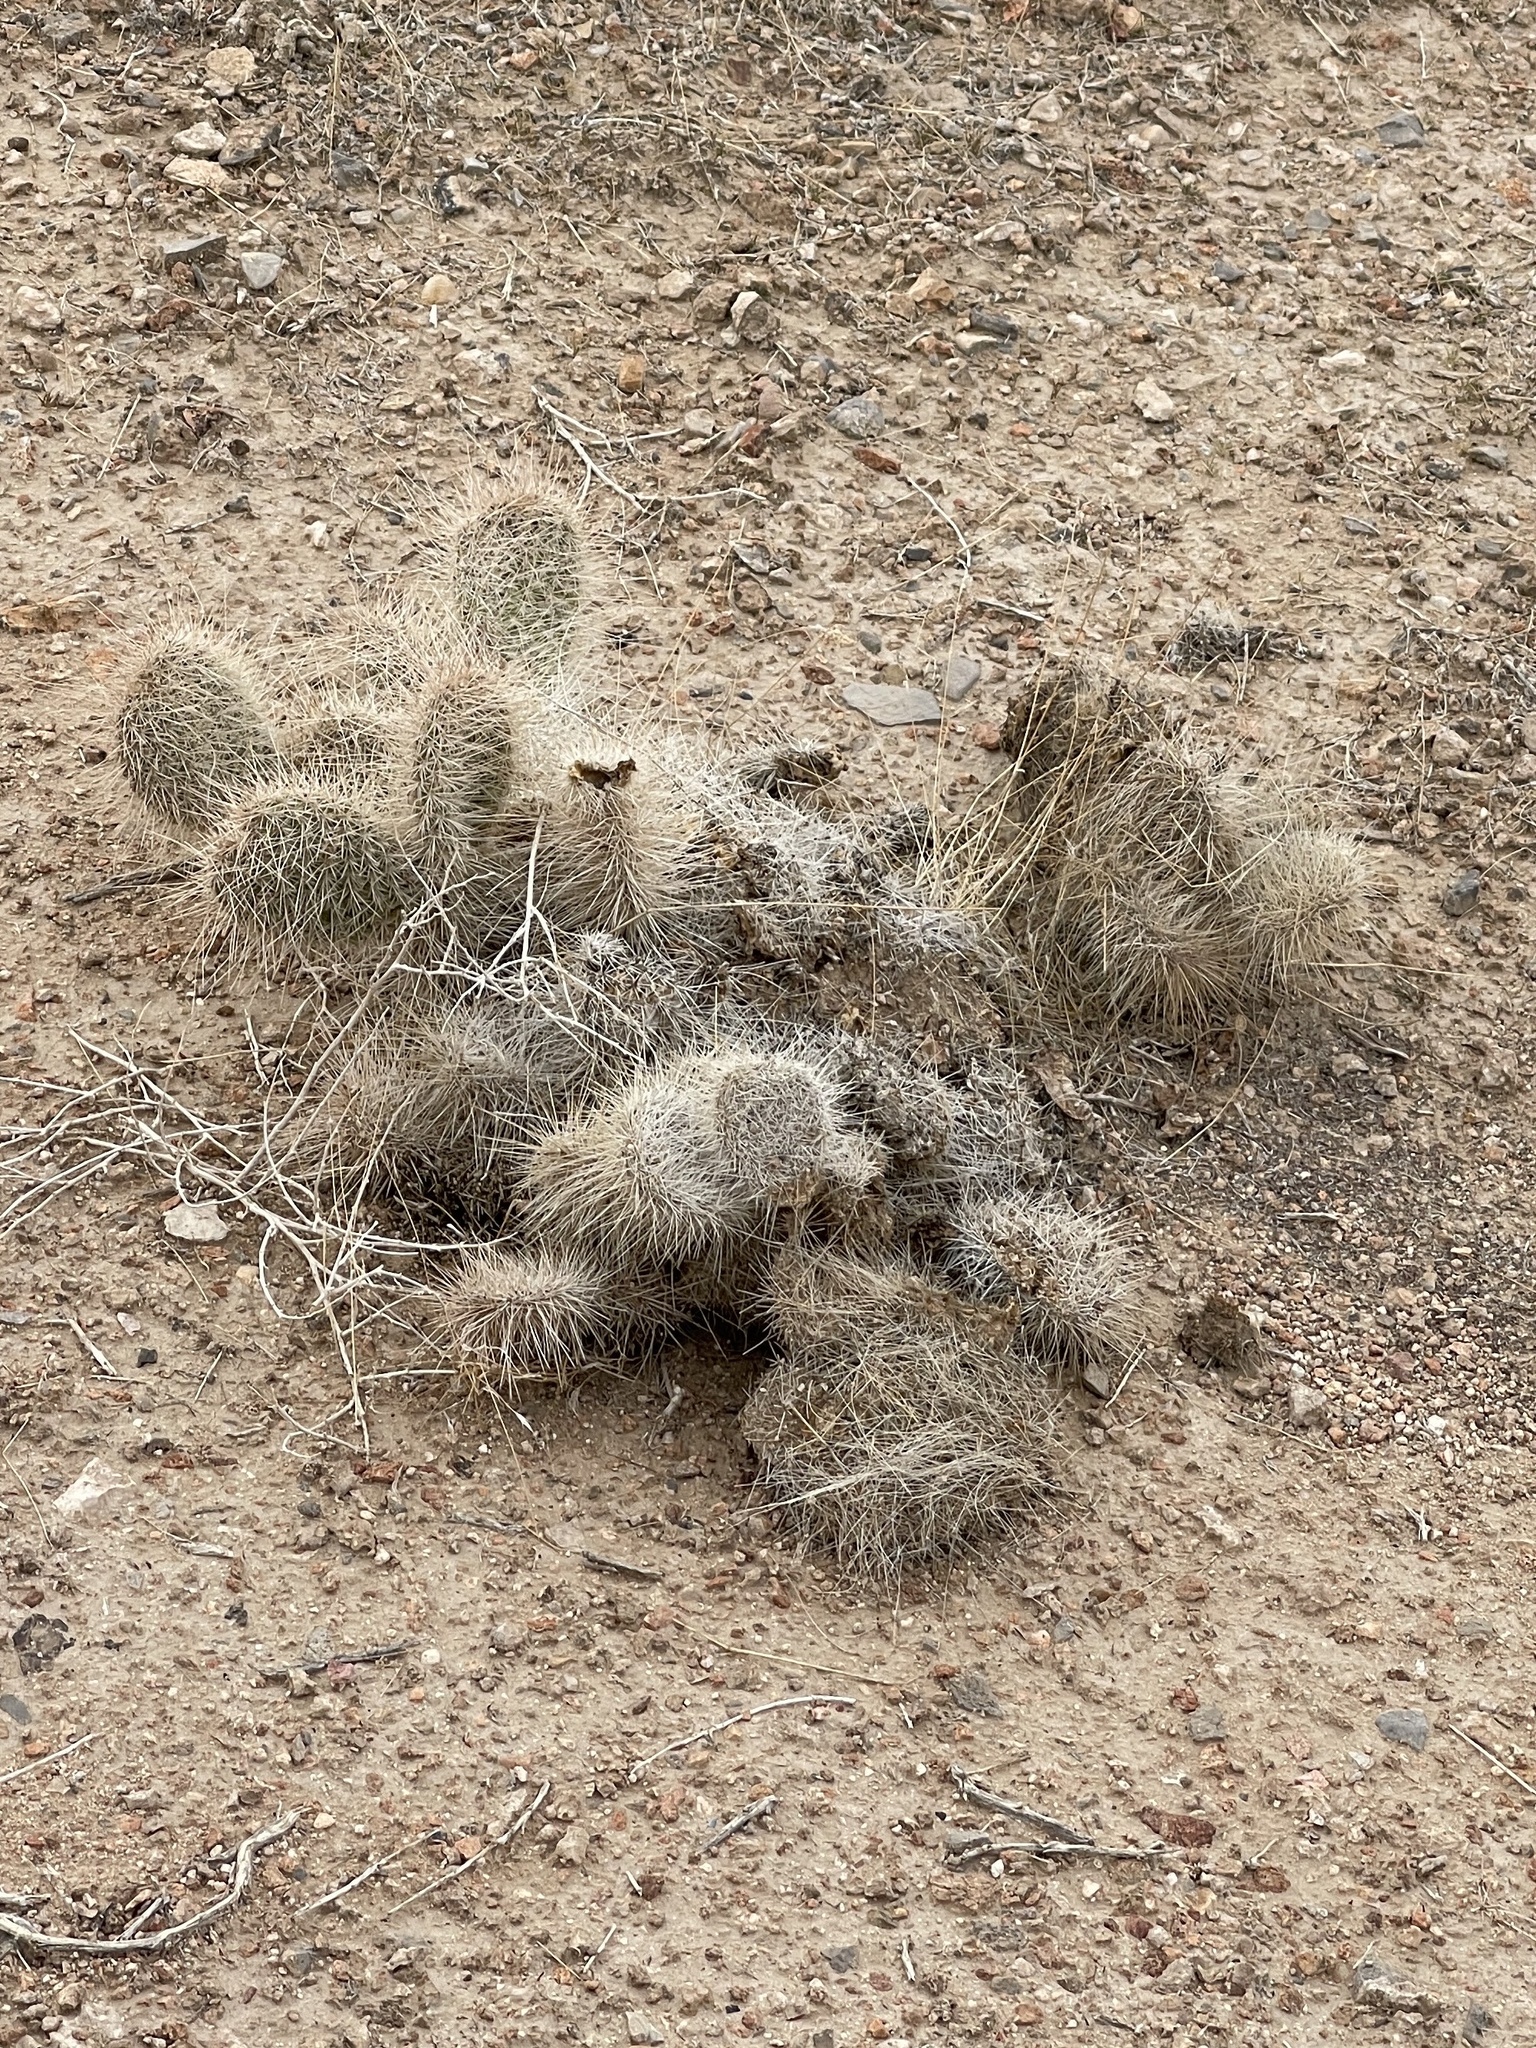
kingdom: Plantae
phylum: Tracheophyta
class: Magnoliopsida
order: Caryophyllales
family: Cactaceae
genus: Opuntia
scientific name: Opuntia polyacantha
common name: Plains prickly-pear
